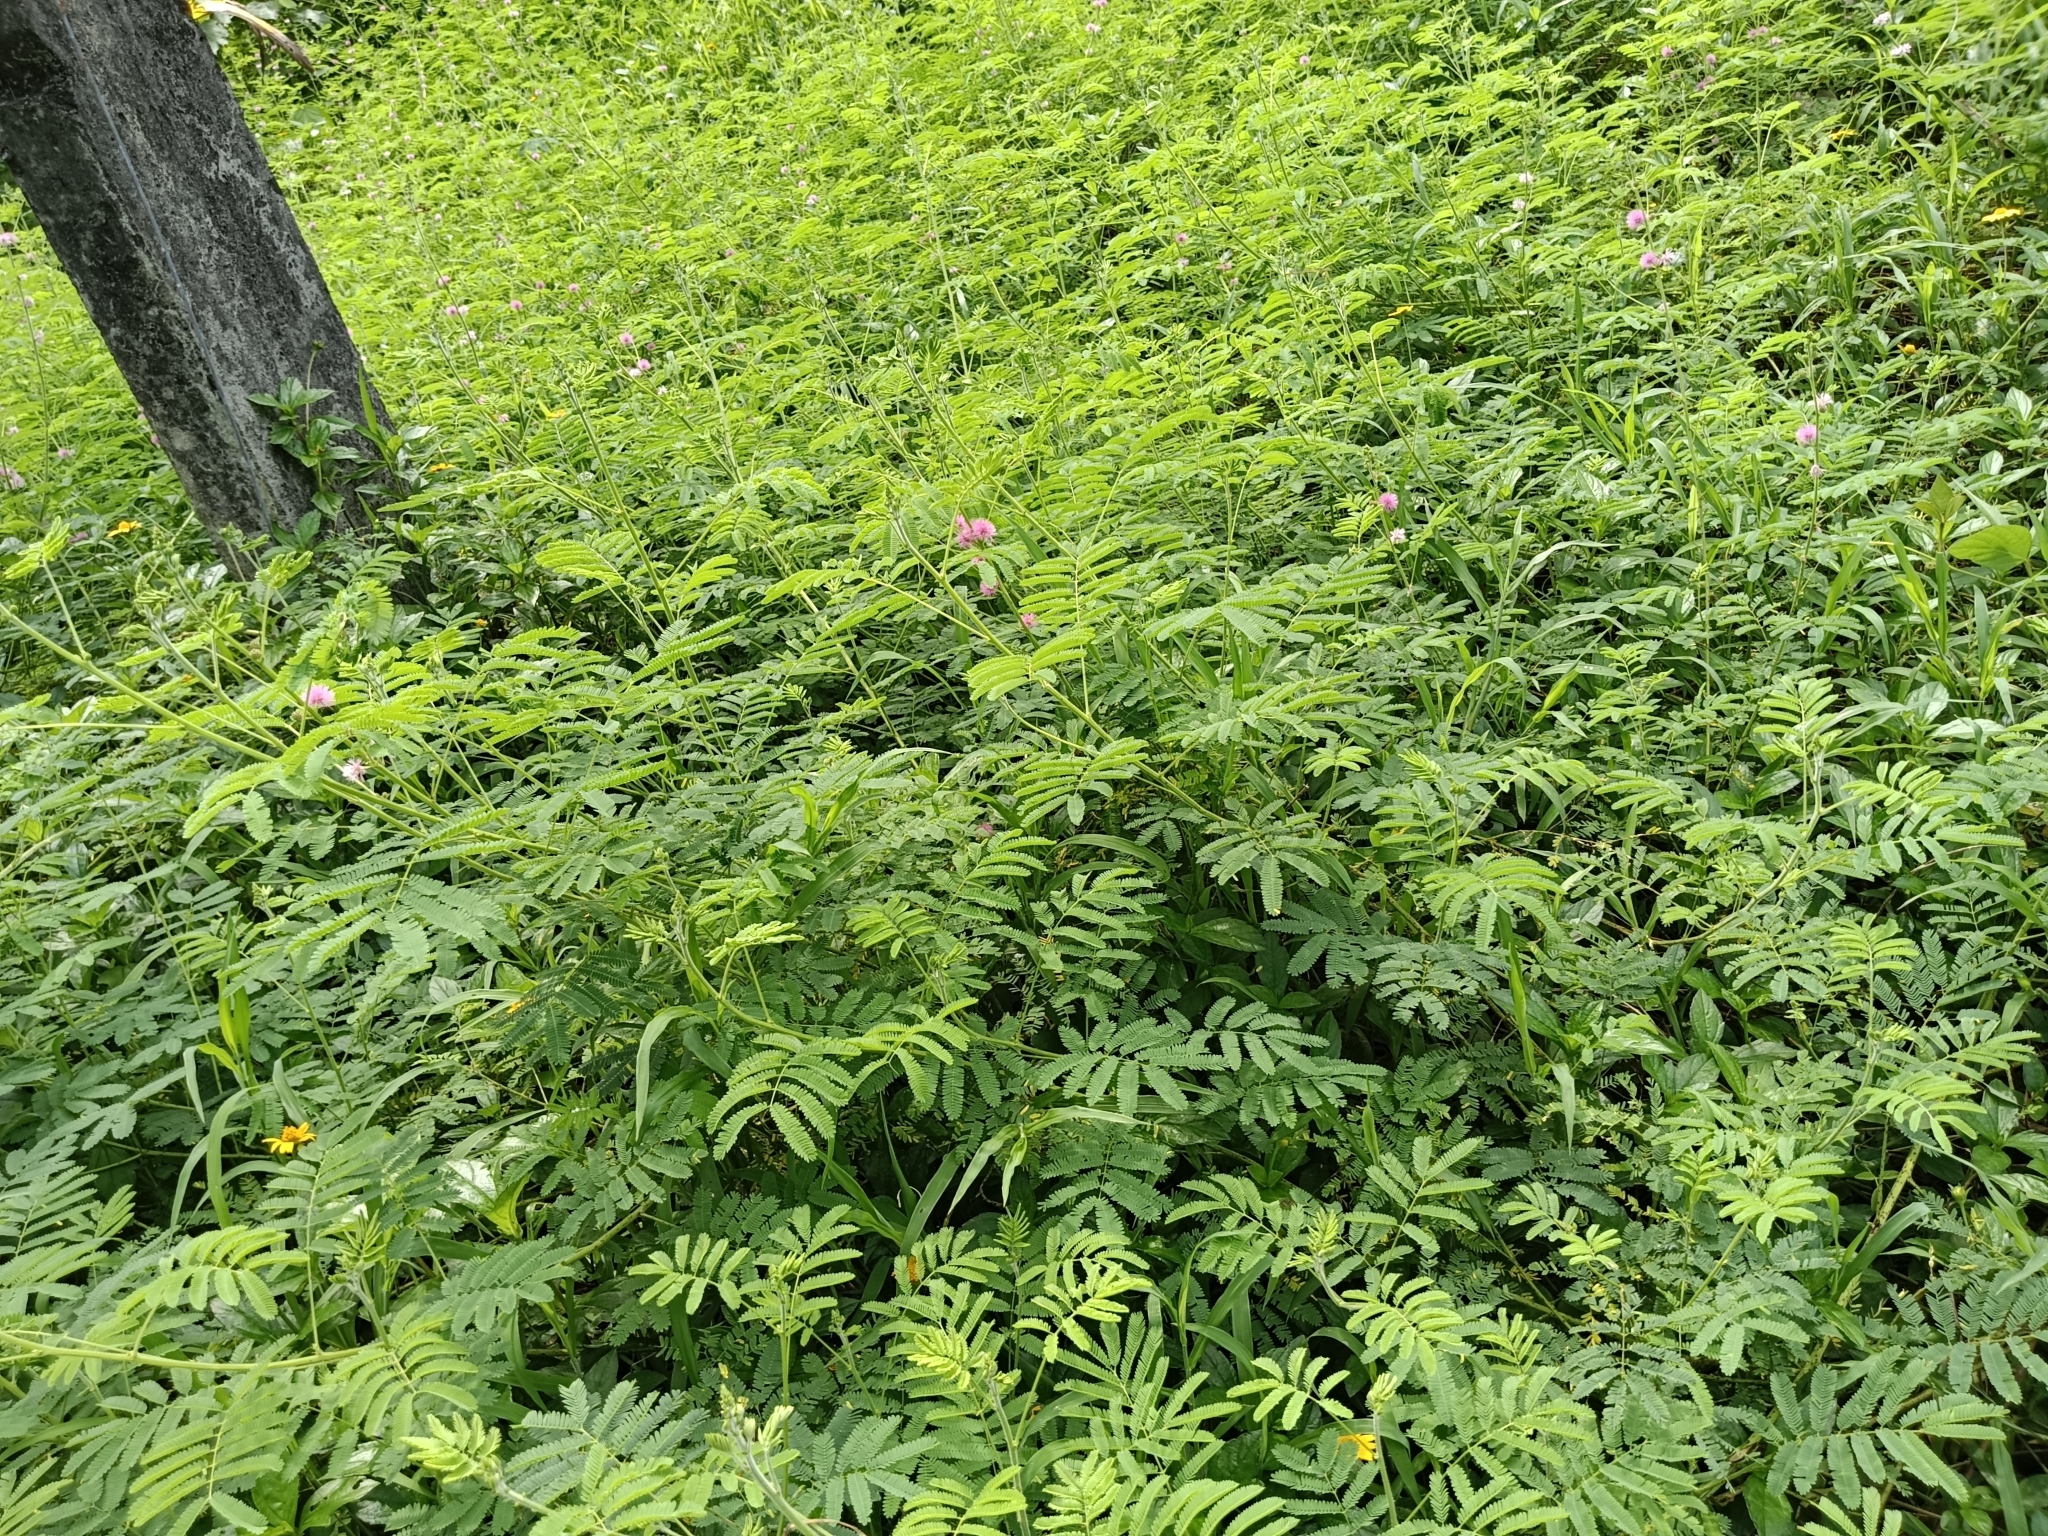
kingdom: Plantae
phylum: Tracheophyta
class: Magnoliopsida
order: Fabales
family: Fabaceae
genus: Mimosa
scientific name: Mimosa diplotricha
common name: Giant sensitive-plant
